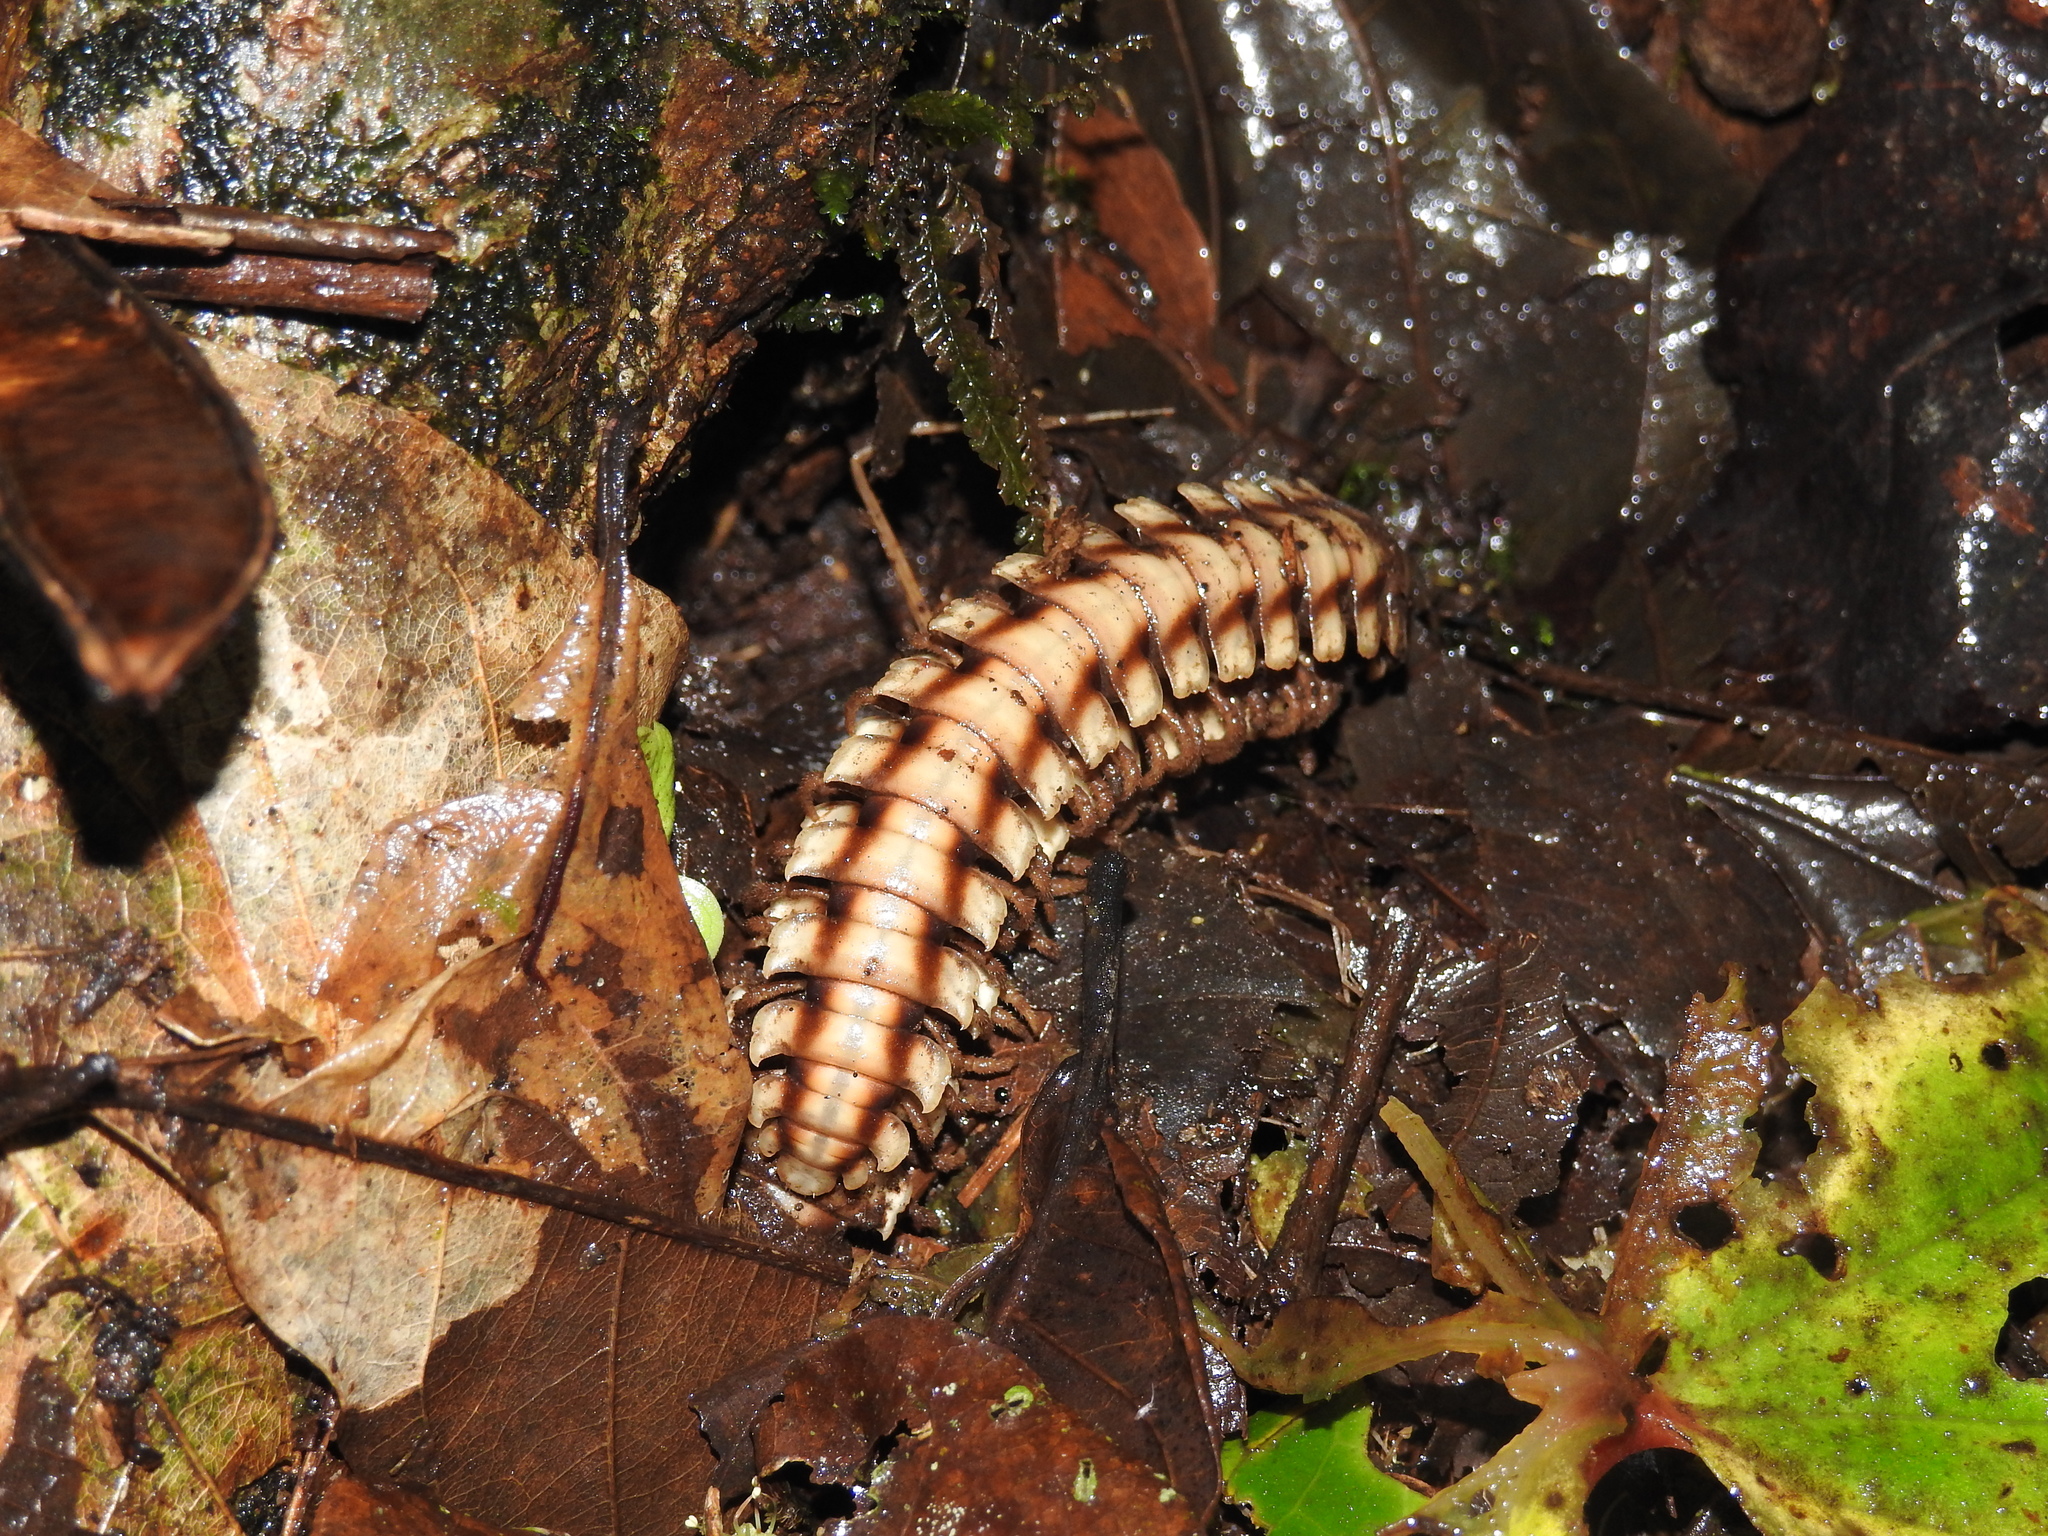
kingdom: Animalia
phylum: Arthropoda
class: Diplopoda
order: Polydesmida
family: Platyrhacidae
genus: Nyssodesmus
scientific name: Nyssodesmus python
